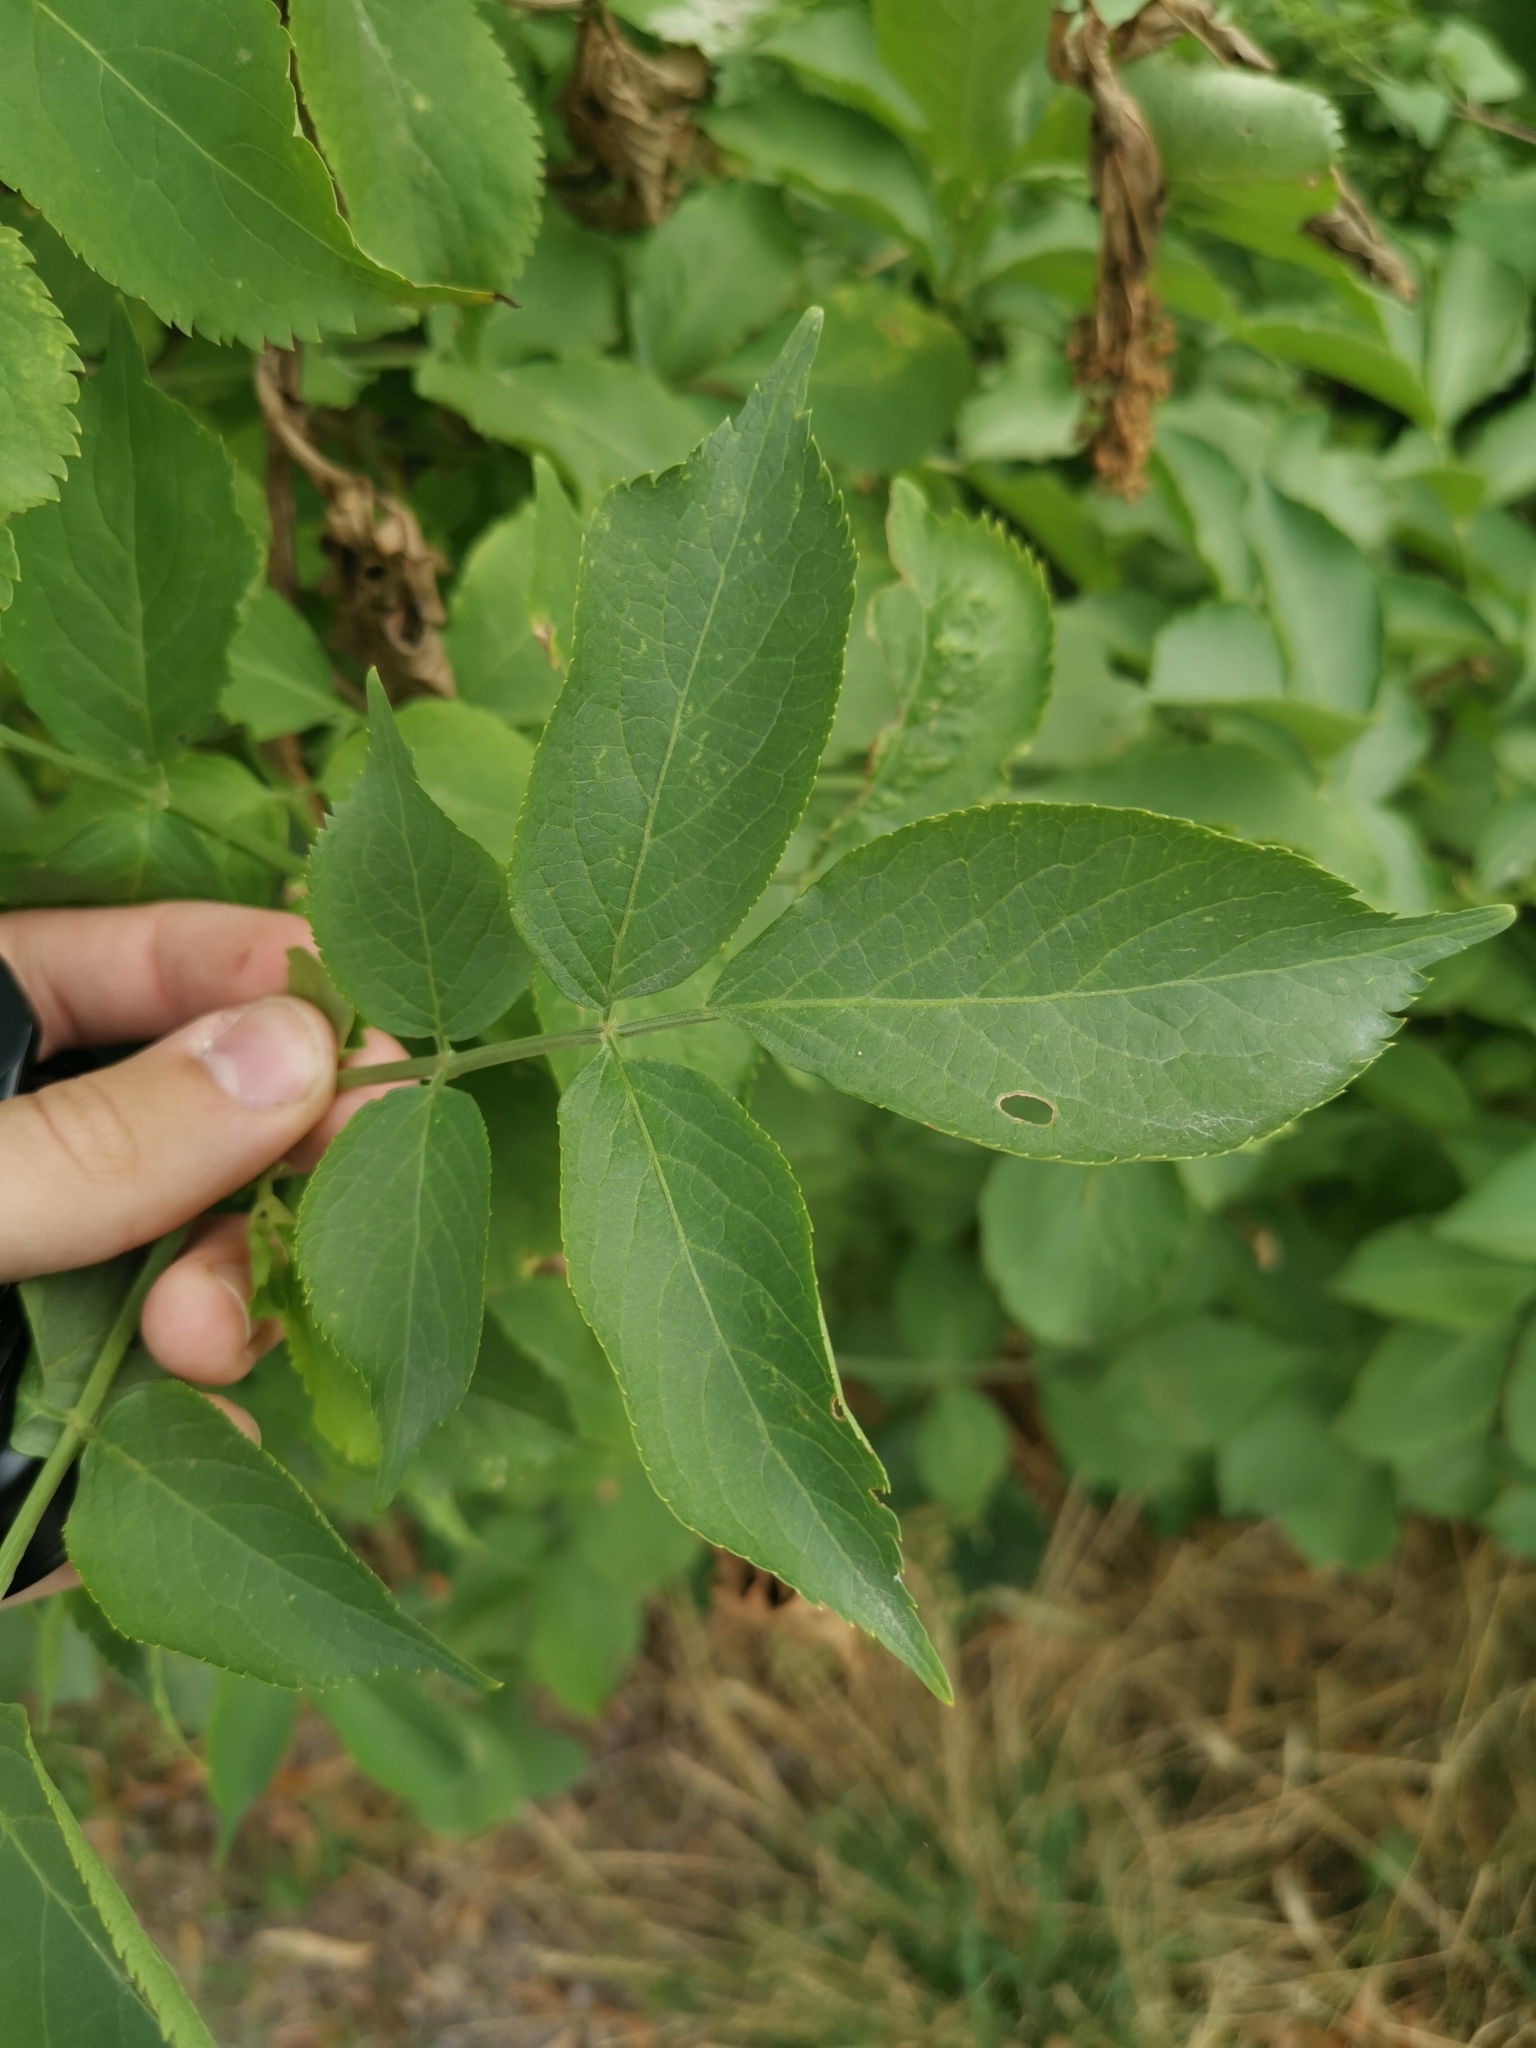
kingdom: Plantae
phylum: Tracheophyta
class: Magnoliopsida
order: Dipsacales
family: Viburnaceae
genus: Sambucus
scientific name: Sambucus nigra
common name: Elder
